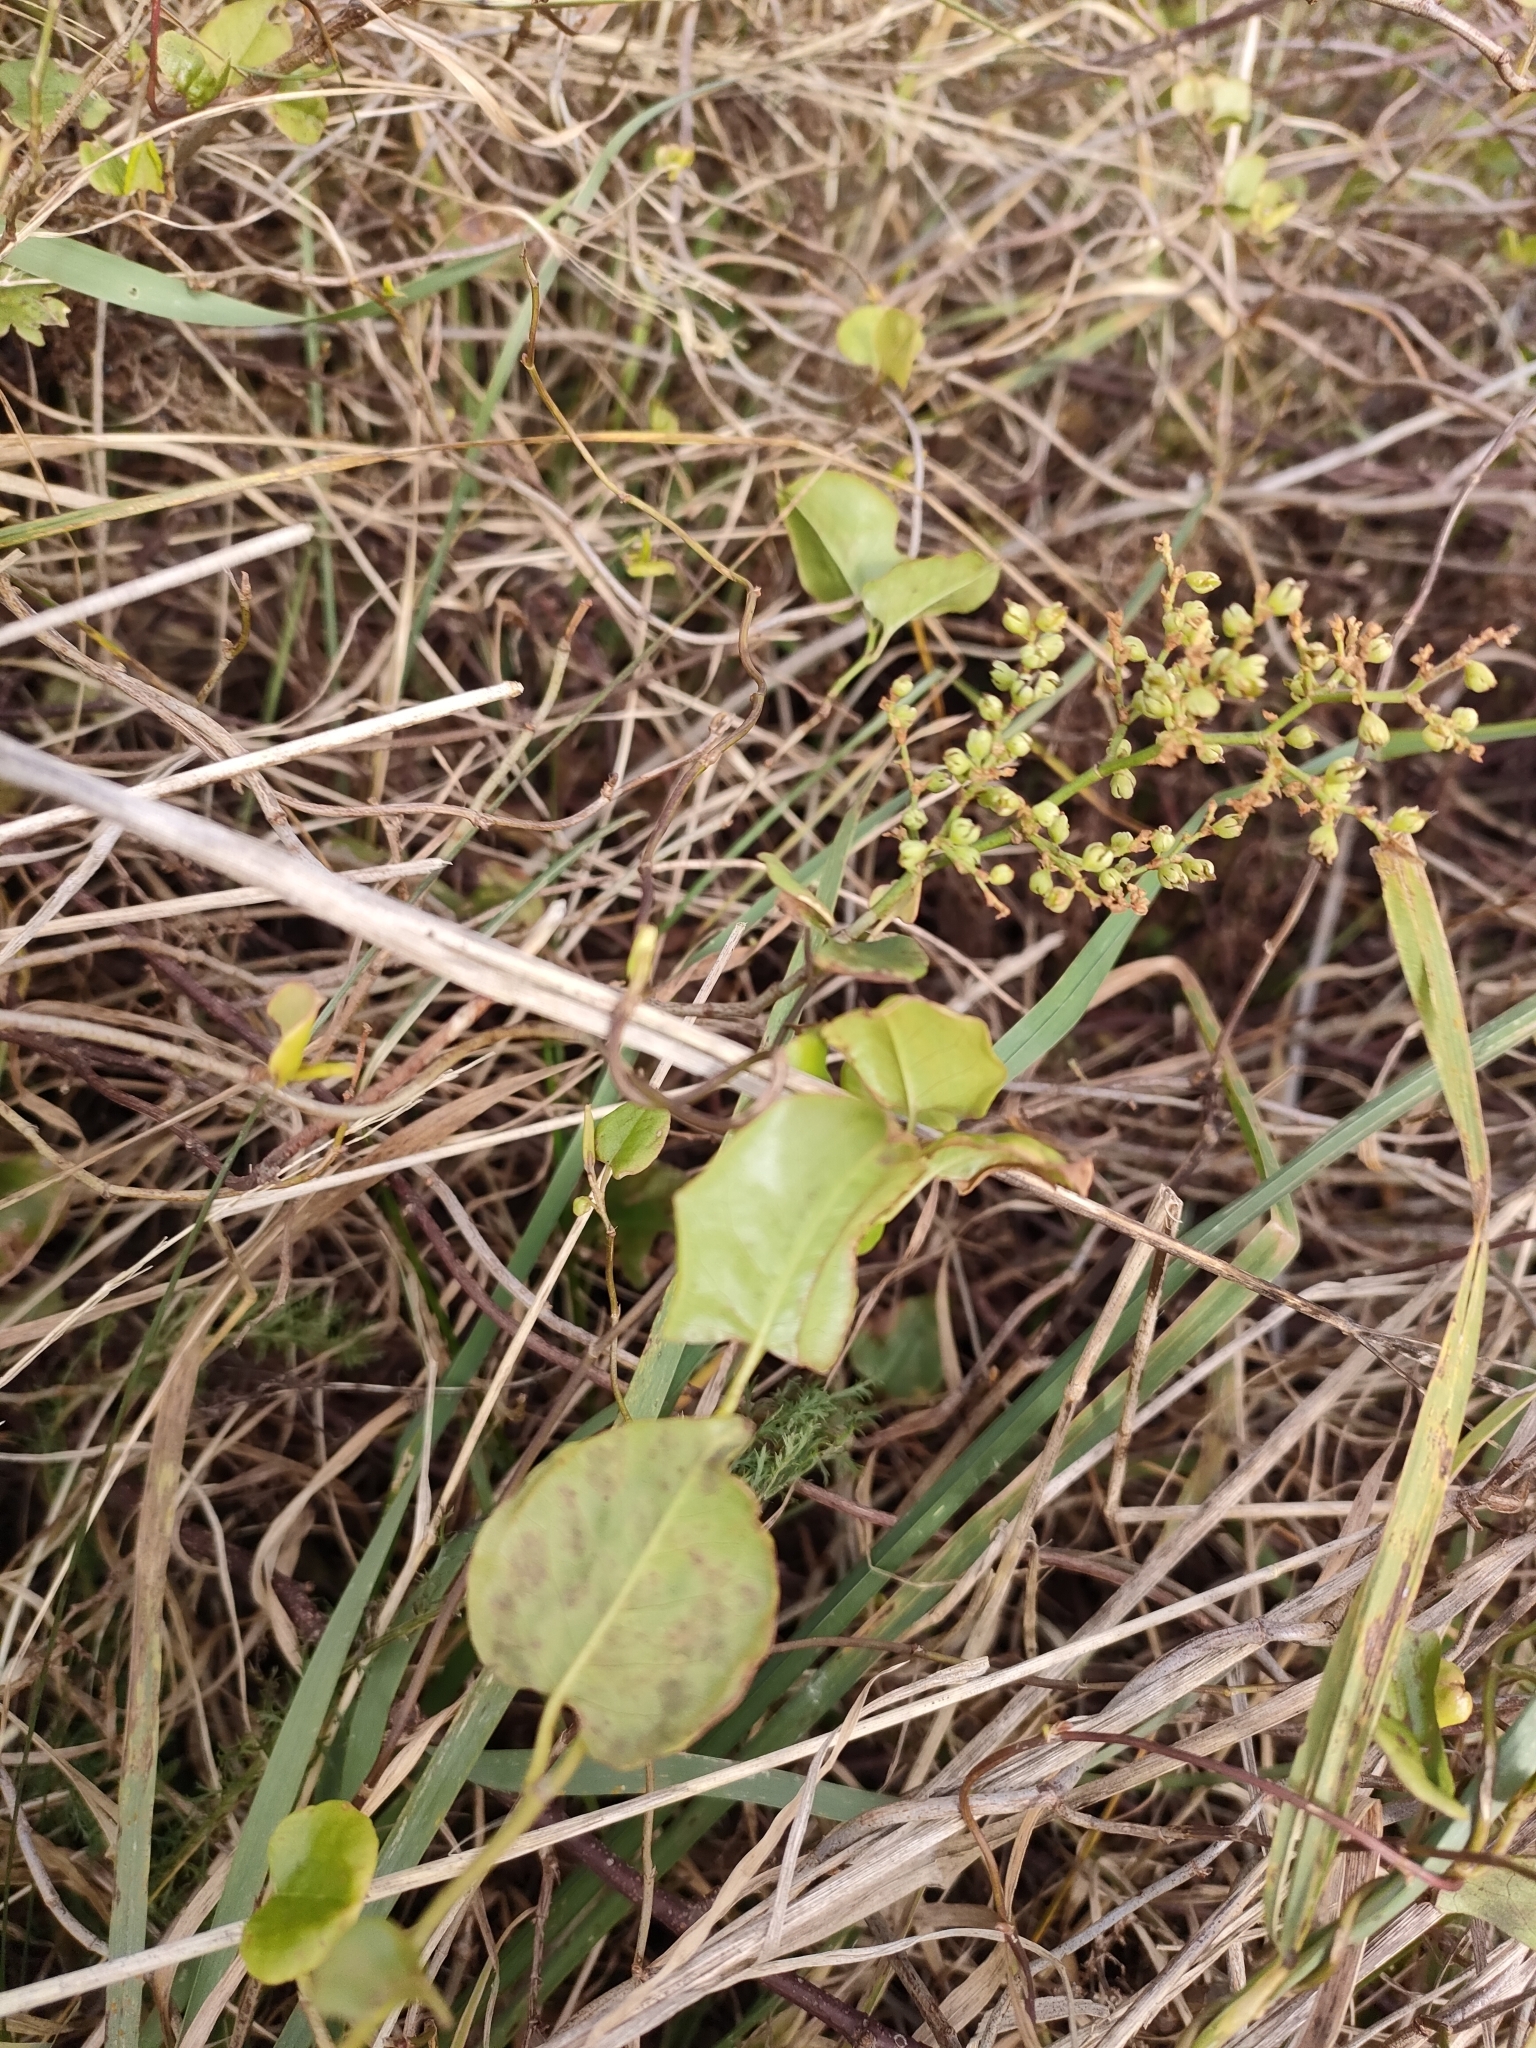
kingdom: Plantae
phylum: Tracheophyta
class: Magnoliopsida
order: Caryophyllales
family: Polygonaceae
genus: Muehlenbeckia
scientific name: Muehlenbeckia australis
